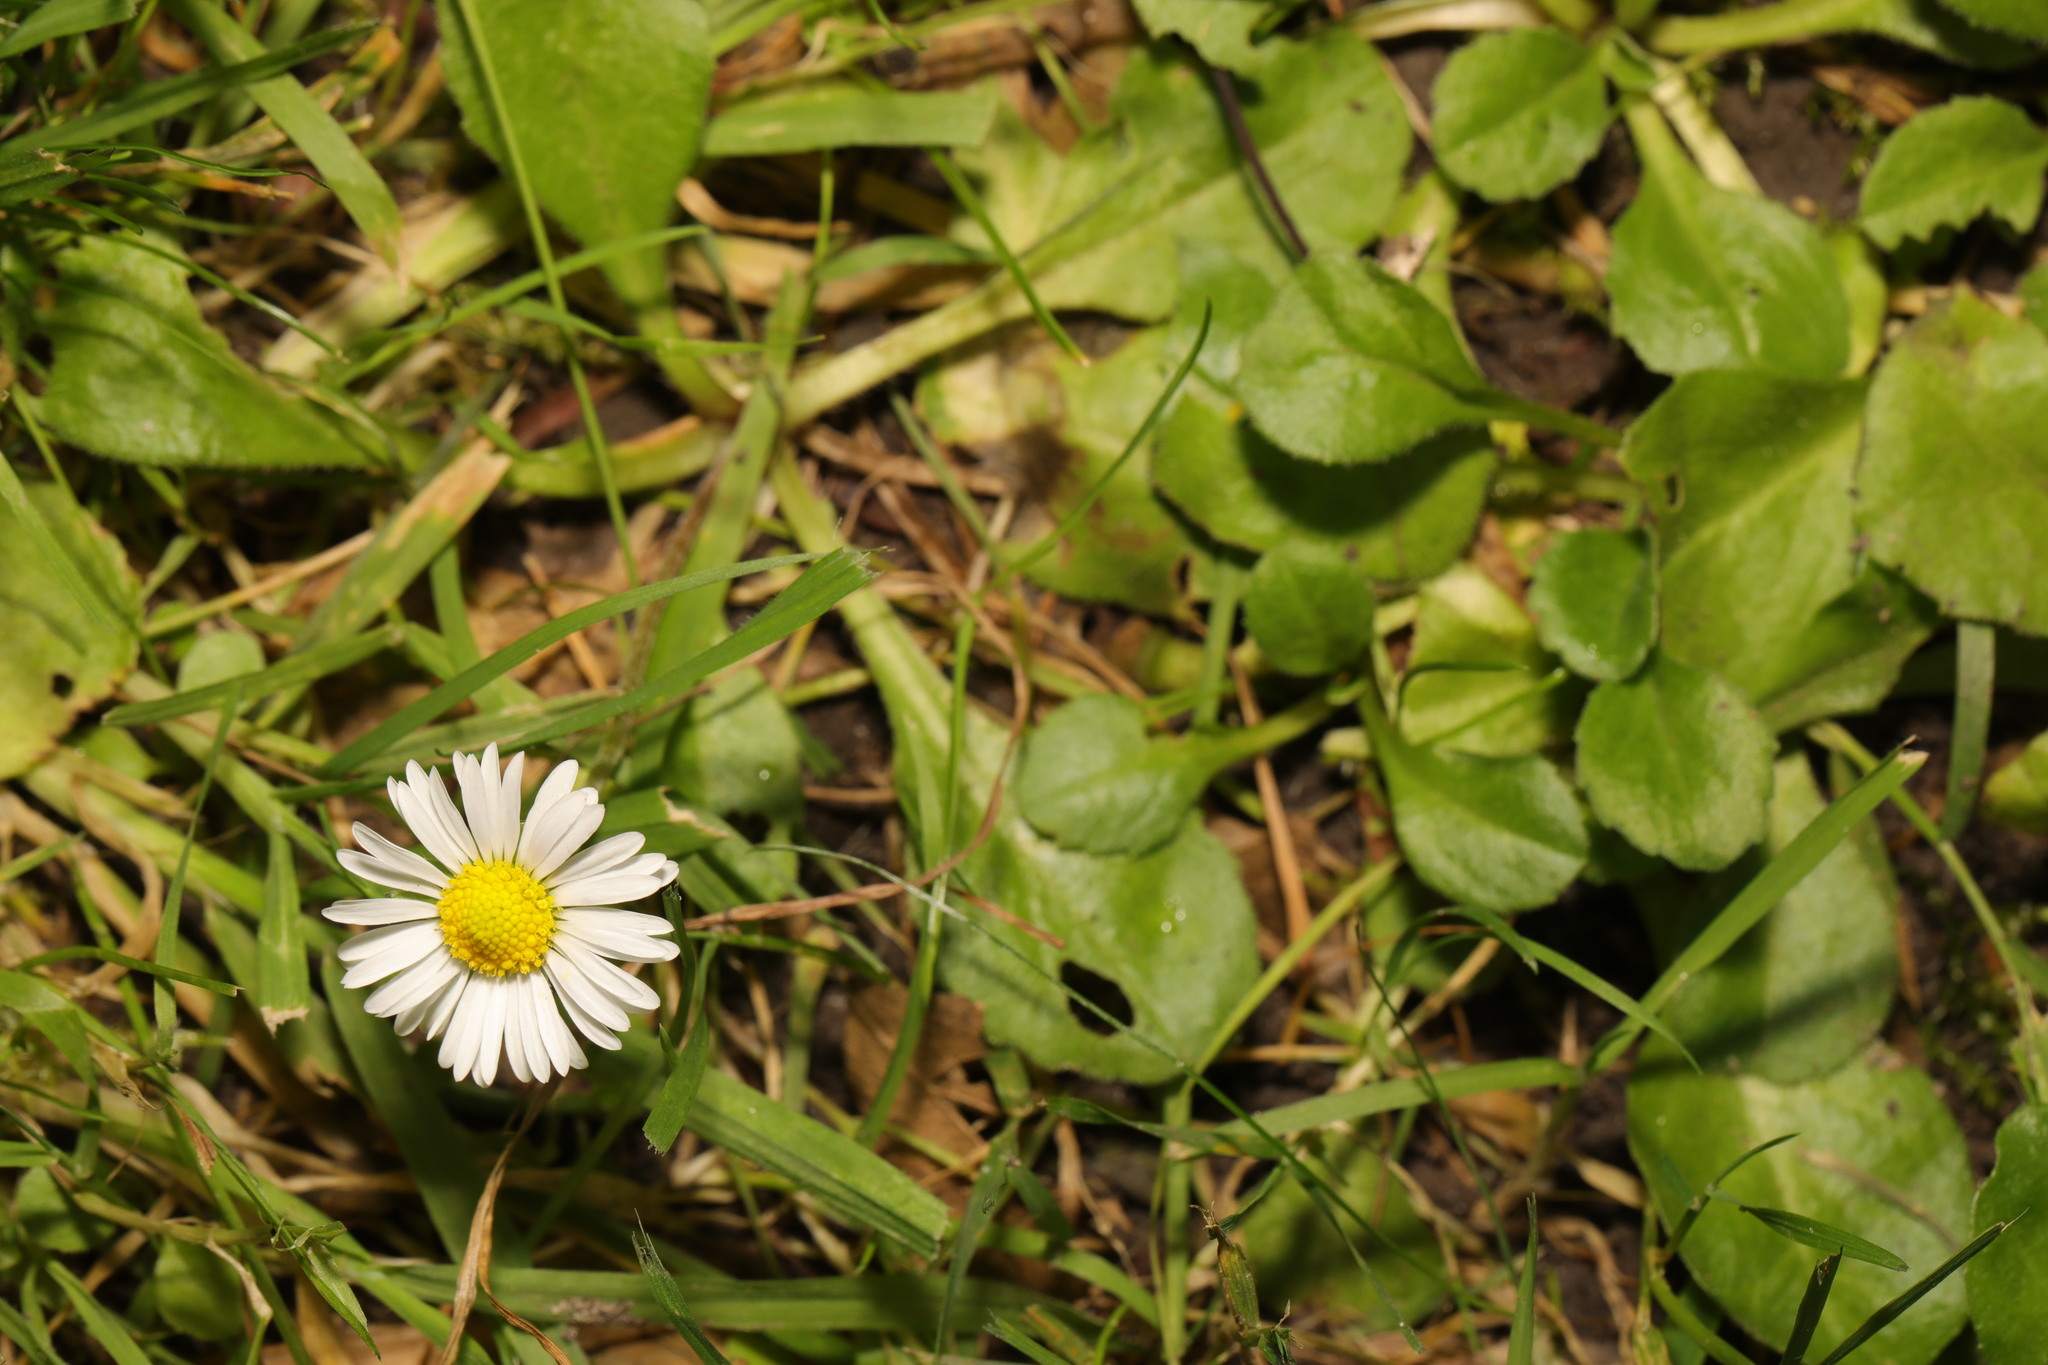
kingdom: Plantae
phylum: Tracheophyta
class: Magnoliopsida
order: Asterales
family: Asteraceae
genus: Bellis
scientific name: Bellis perennis
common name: Lawndaisy
